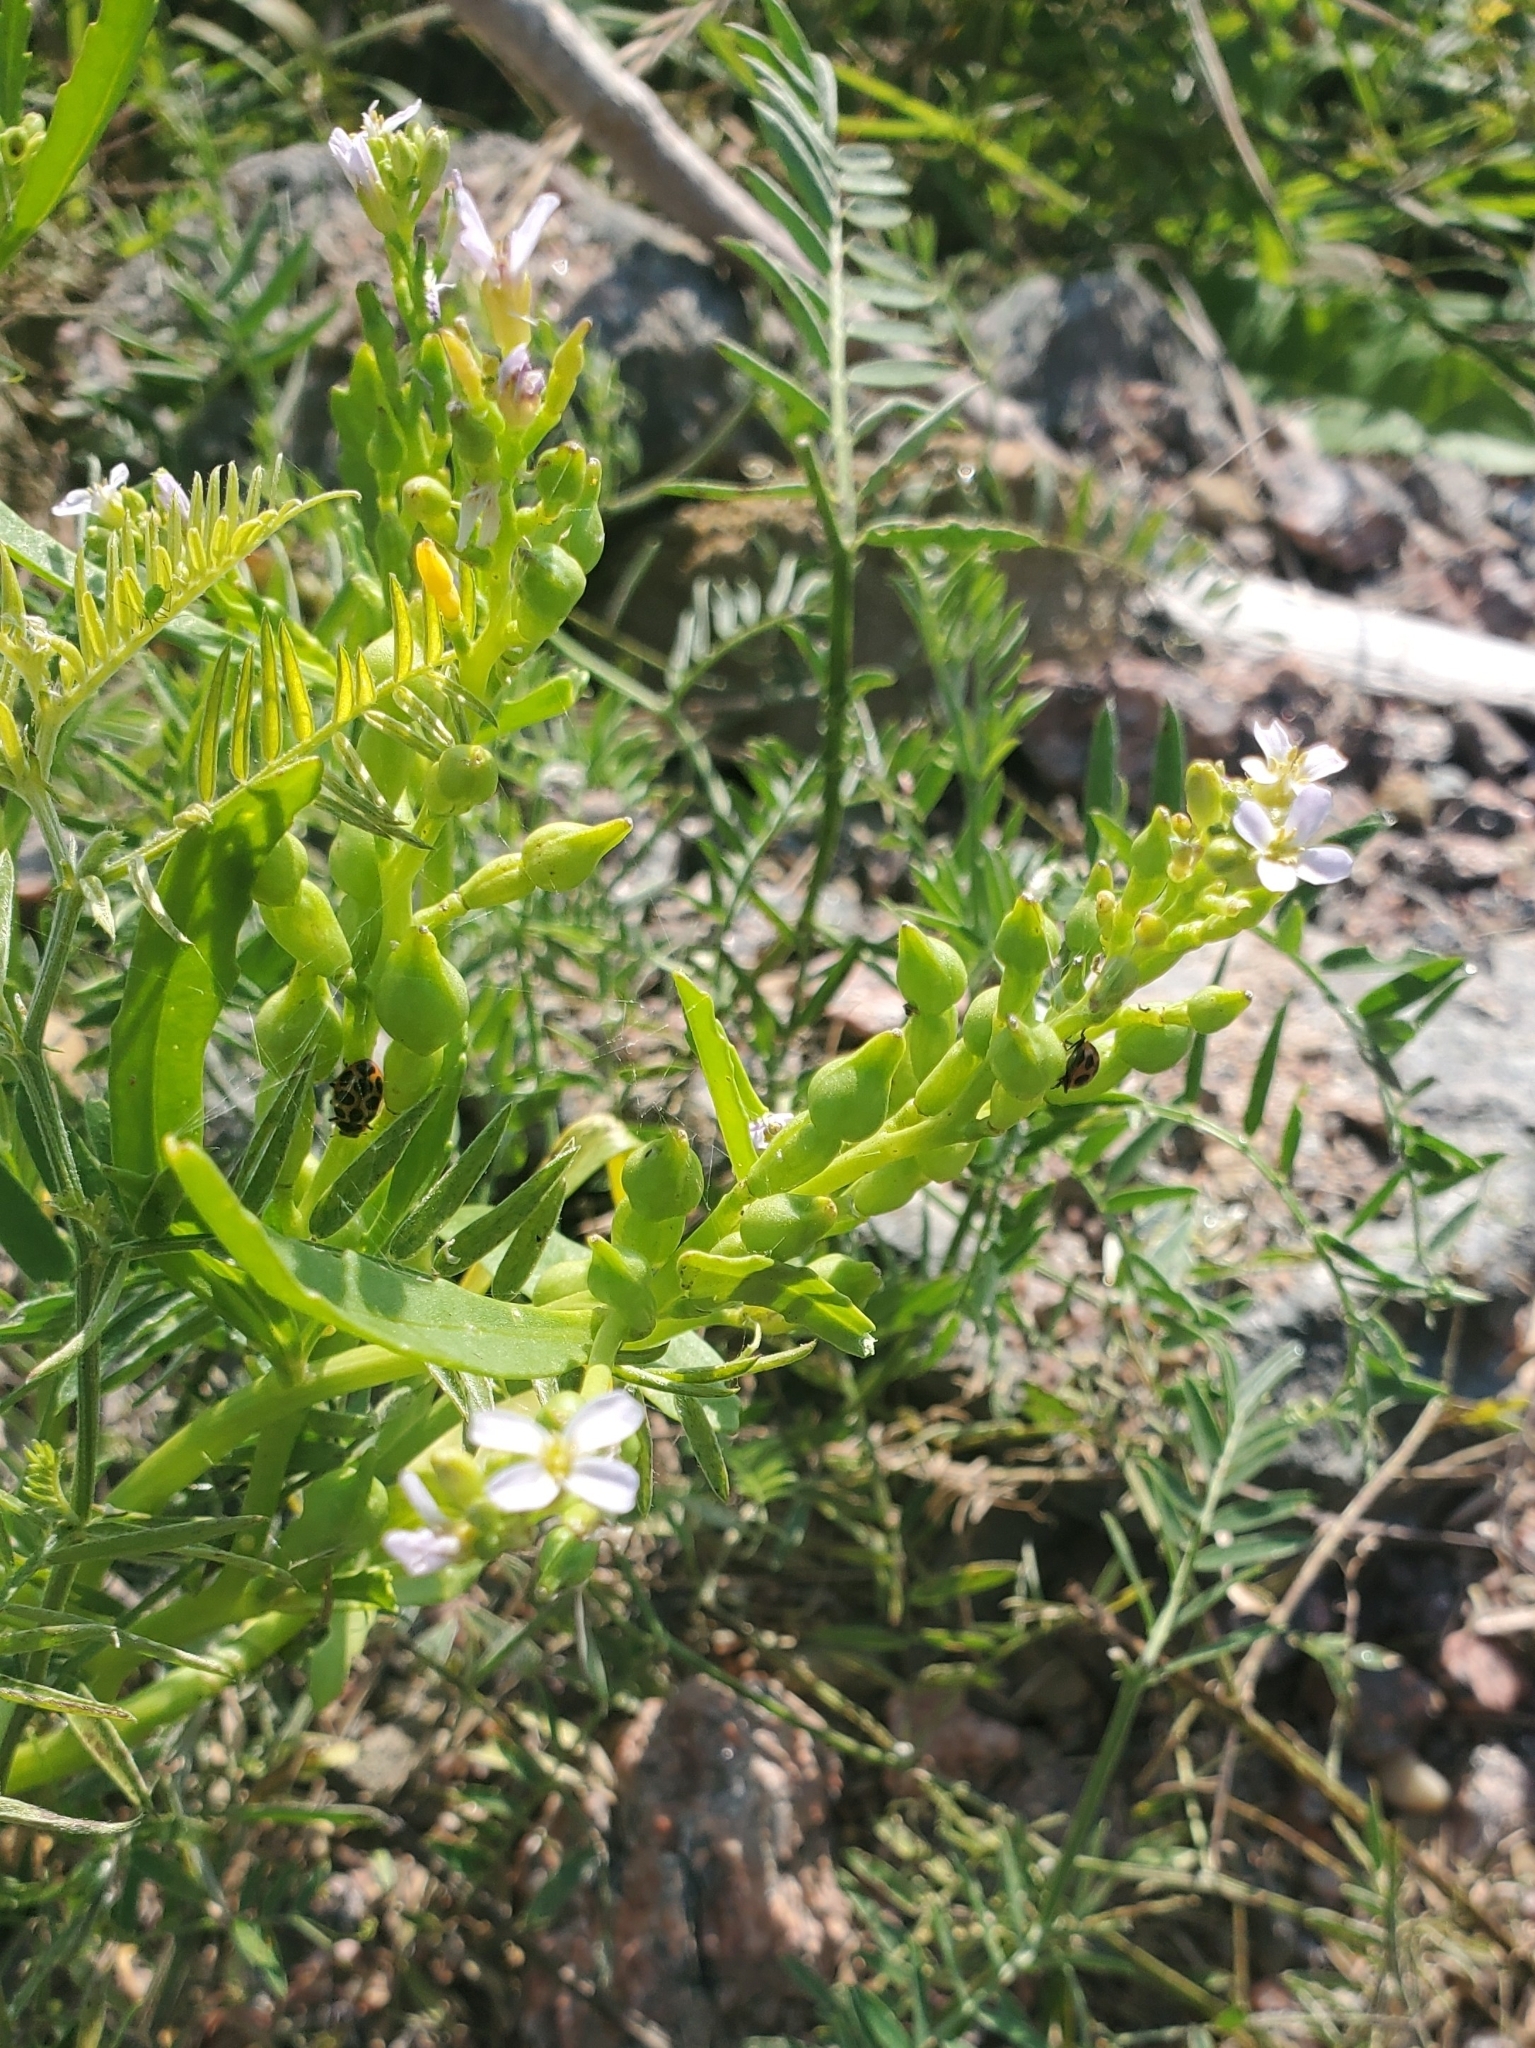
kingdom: Plantae
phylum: Tracheophyta
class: Magnoliopsida
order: Brassicales
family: Brassicaceae
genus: Cakile
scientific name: Cakile edentula
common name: American sea rocket
